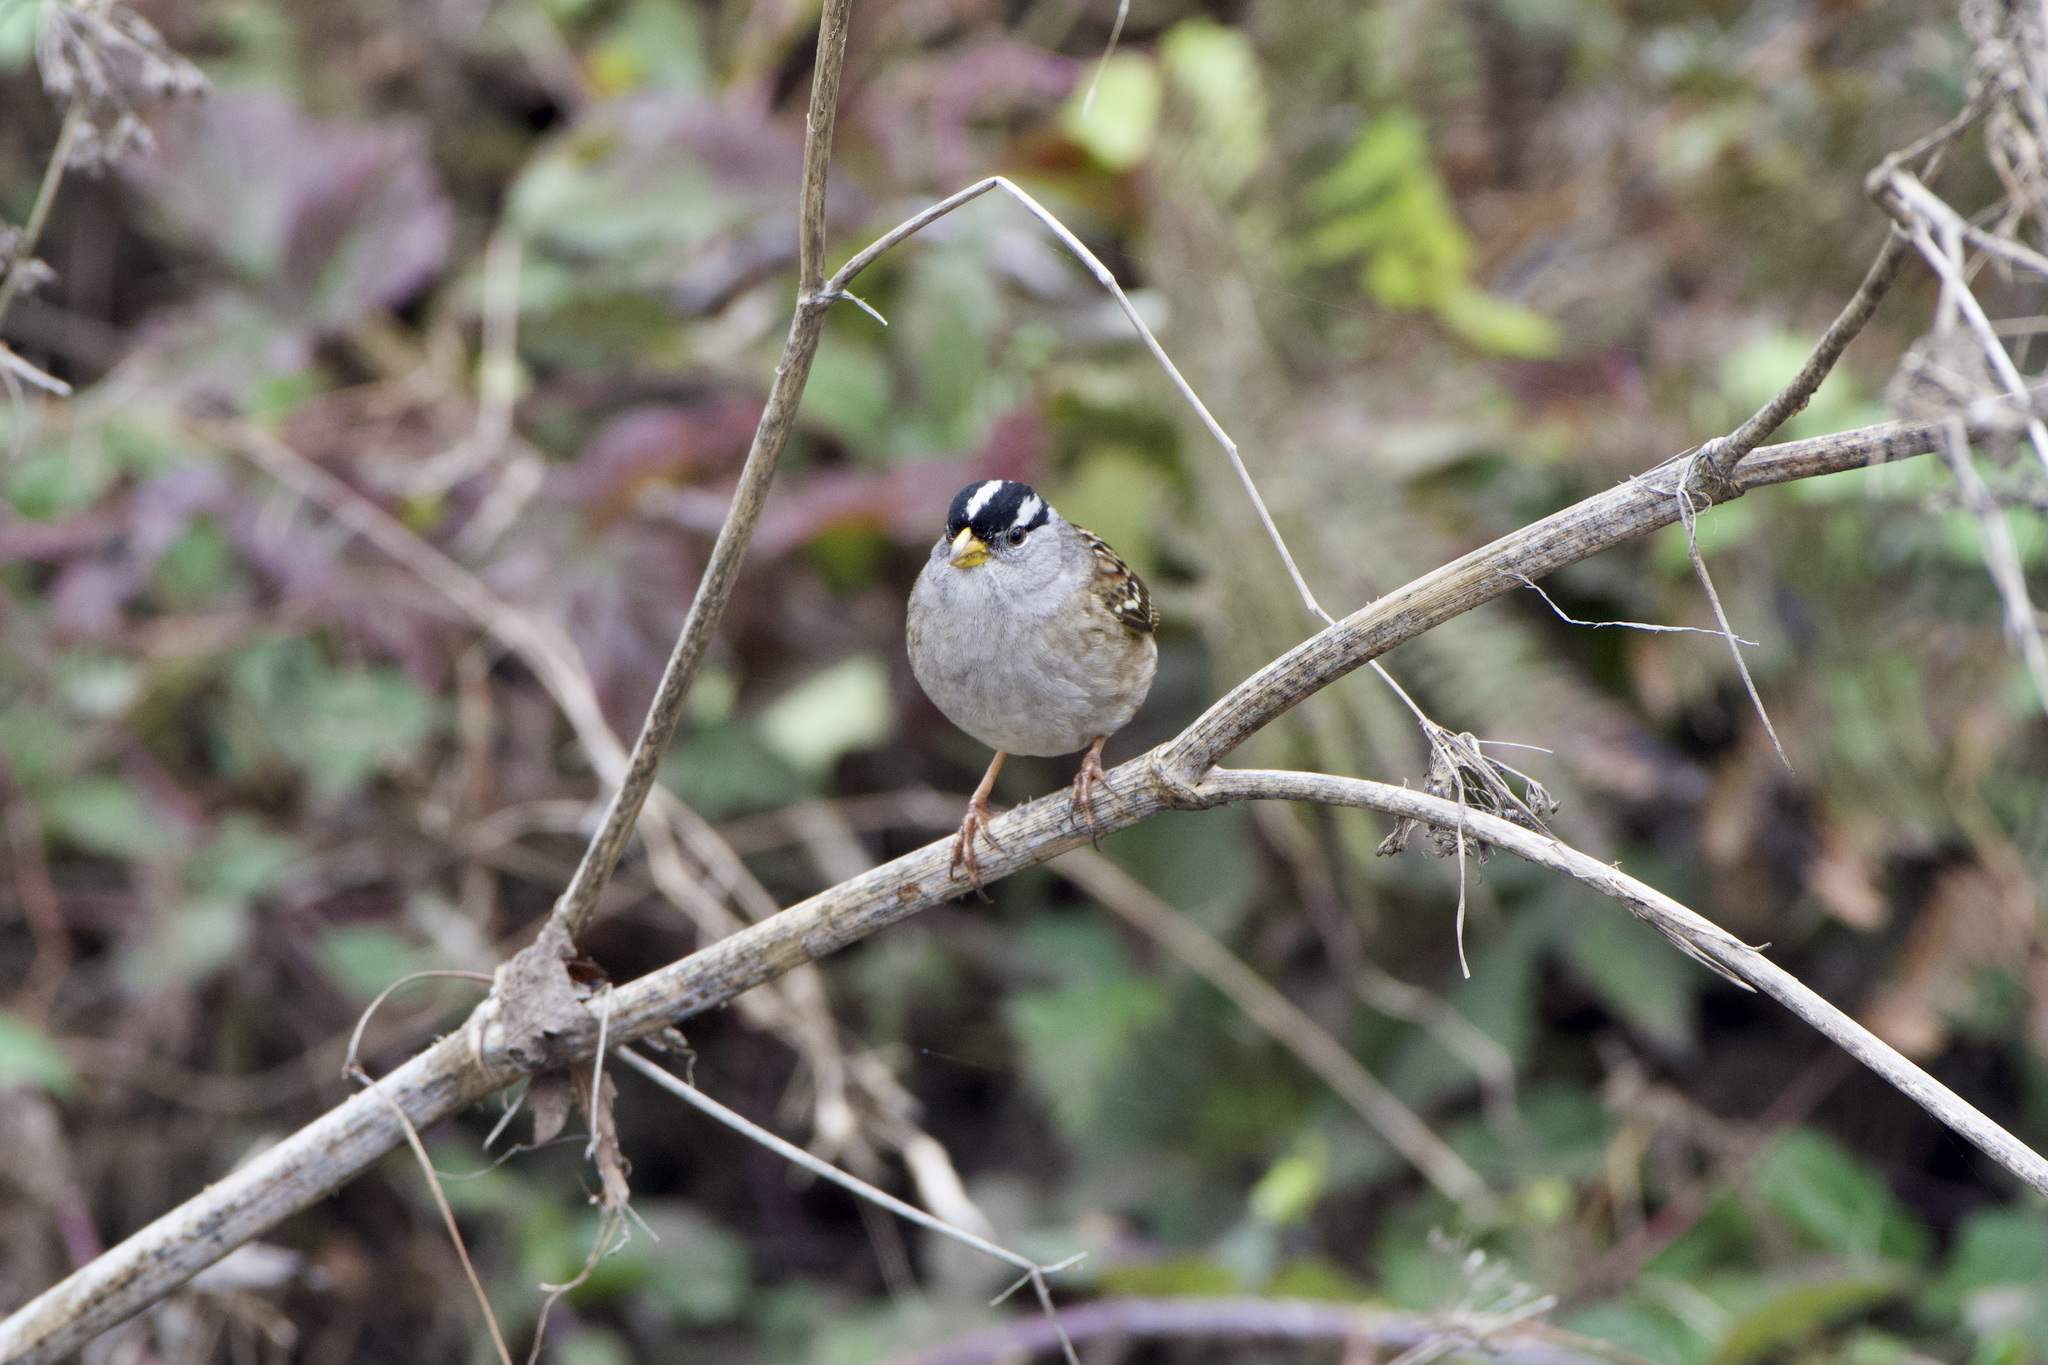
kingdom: Animalia
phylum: Chordata
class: Aves
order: Passeriformes
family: Passerellidae
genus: Zonotrichia
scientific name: Zonotrichia leucophrys
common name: White-crowned sparrow
